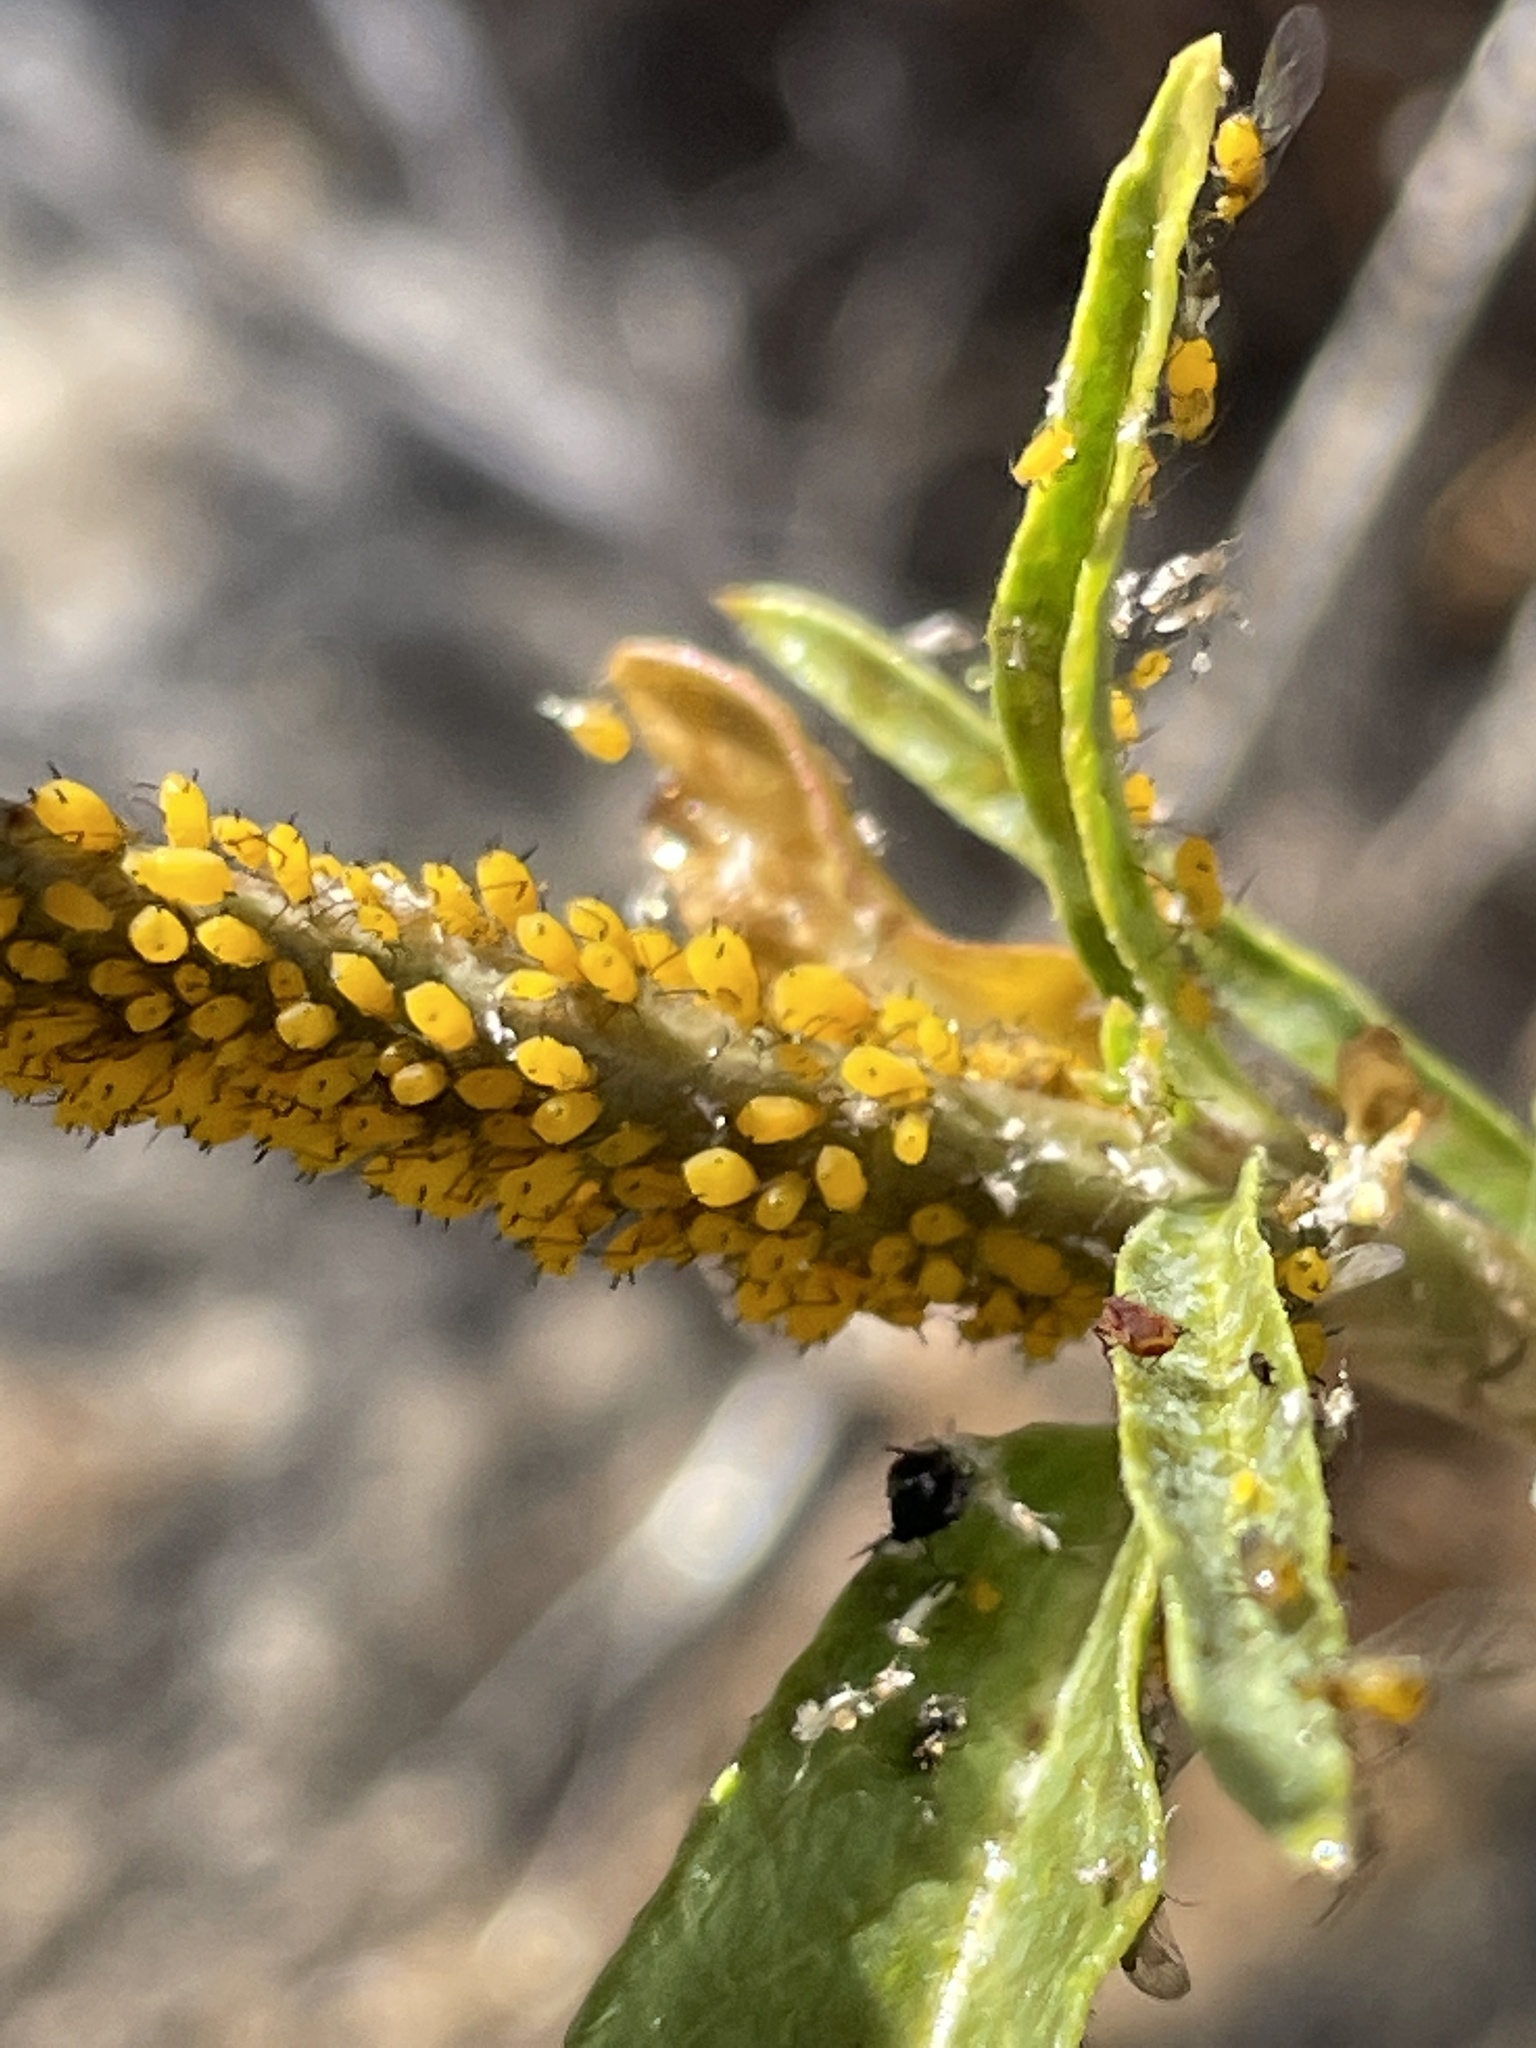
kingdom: Animalia
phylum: Arthropoda
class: Insecta
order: Hemiptera
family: Aphididae
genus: Aphis
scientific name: Aphis nerii
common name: Oleander aphid
